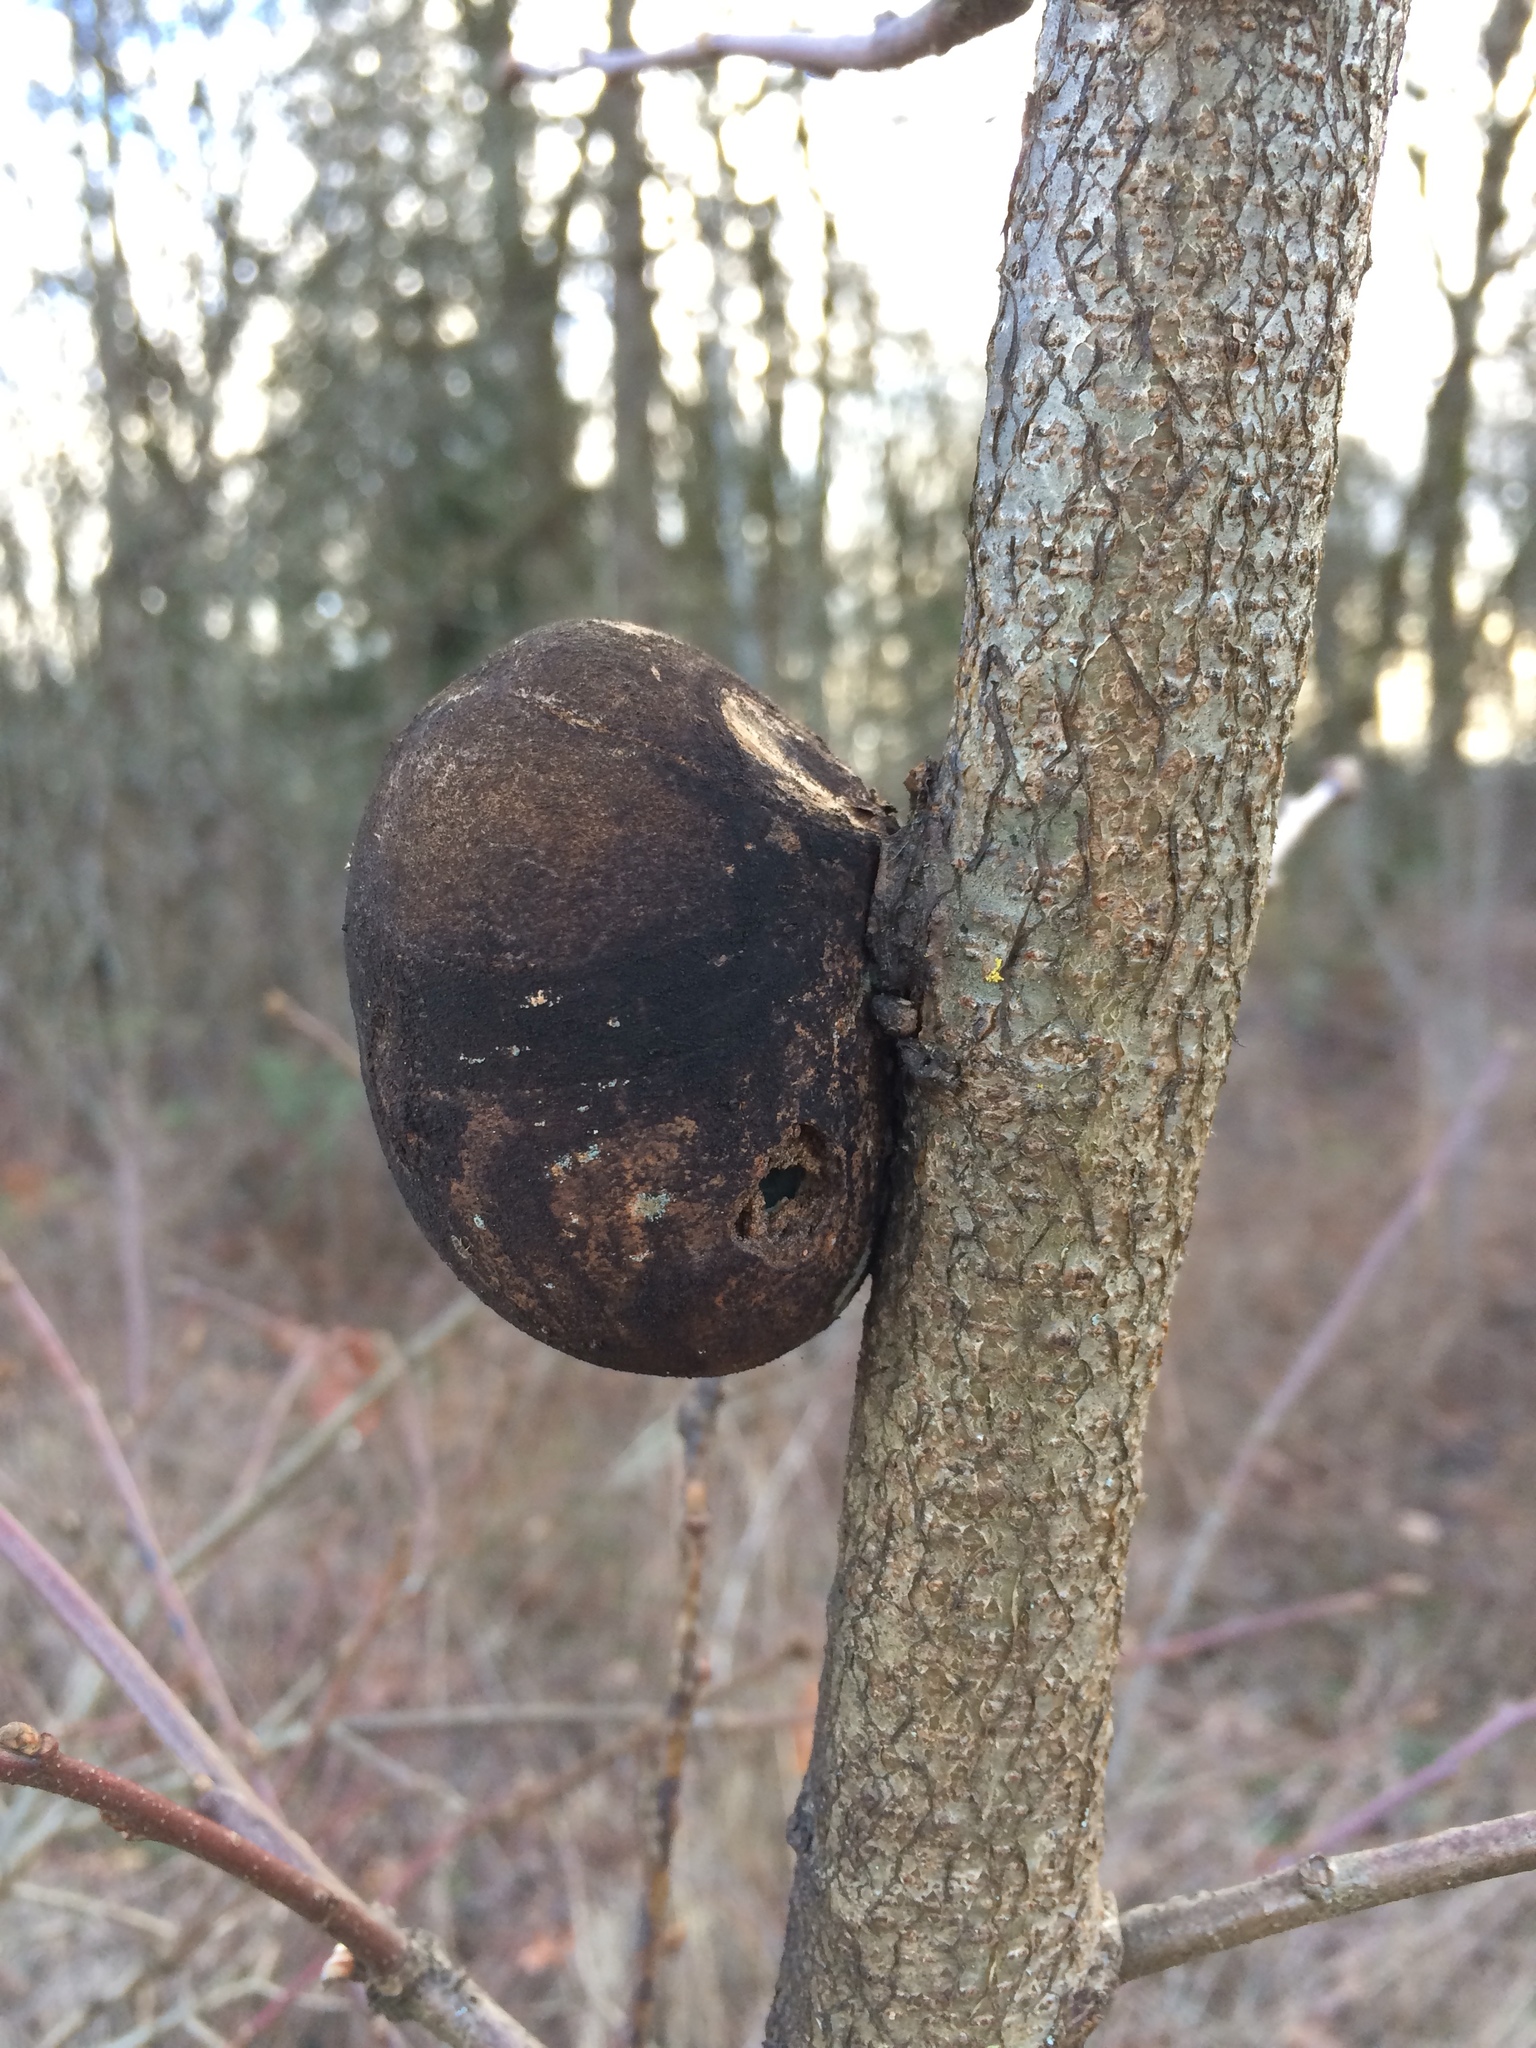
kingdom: Animalia
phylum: Arthropoda
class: Insecta
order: Hymenoptera
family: Cynipidae
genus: Andricus
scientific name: Andricus quercuscalifornicus
